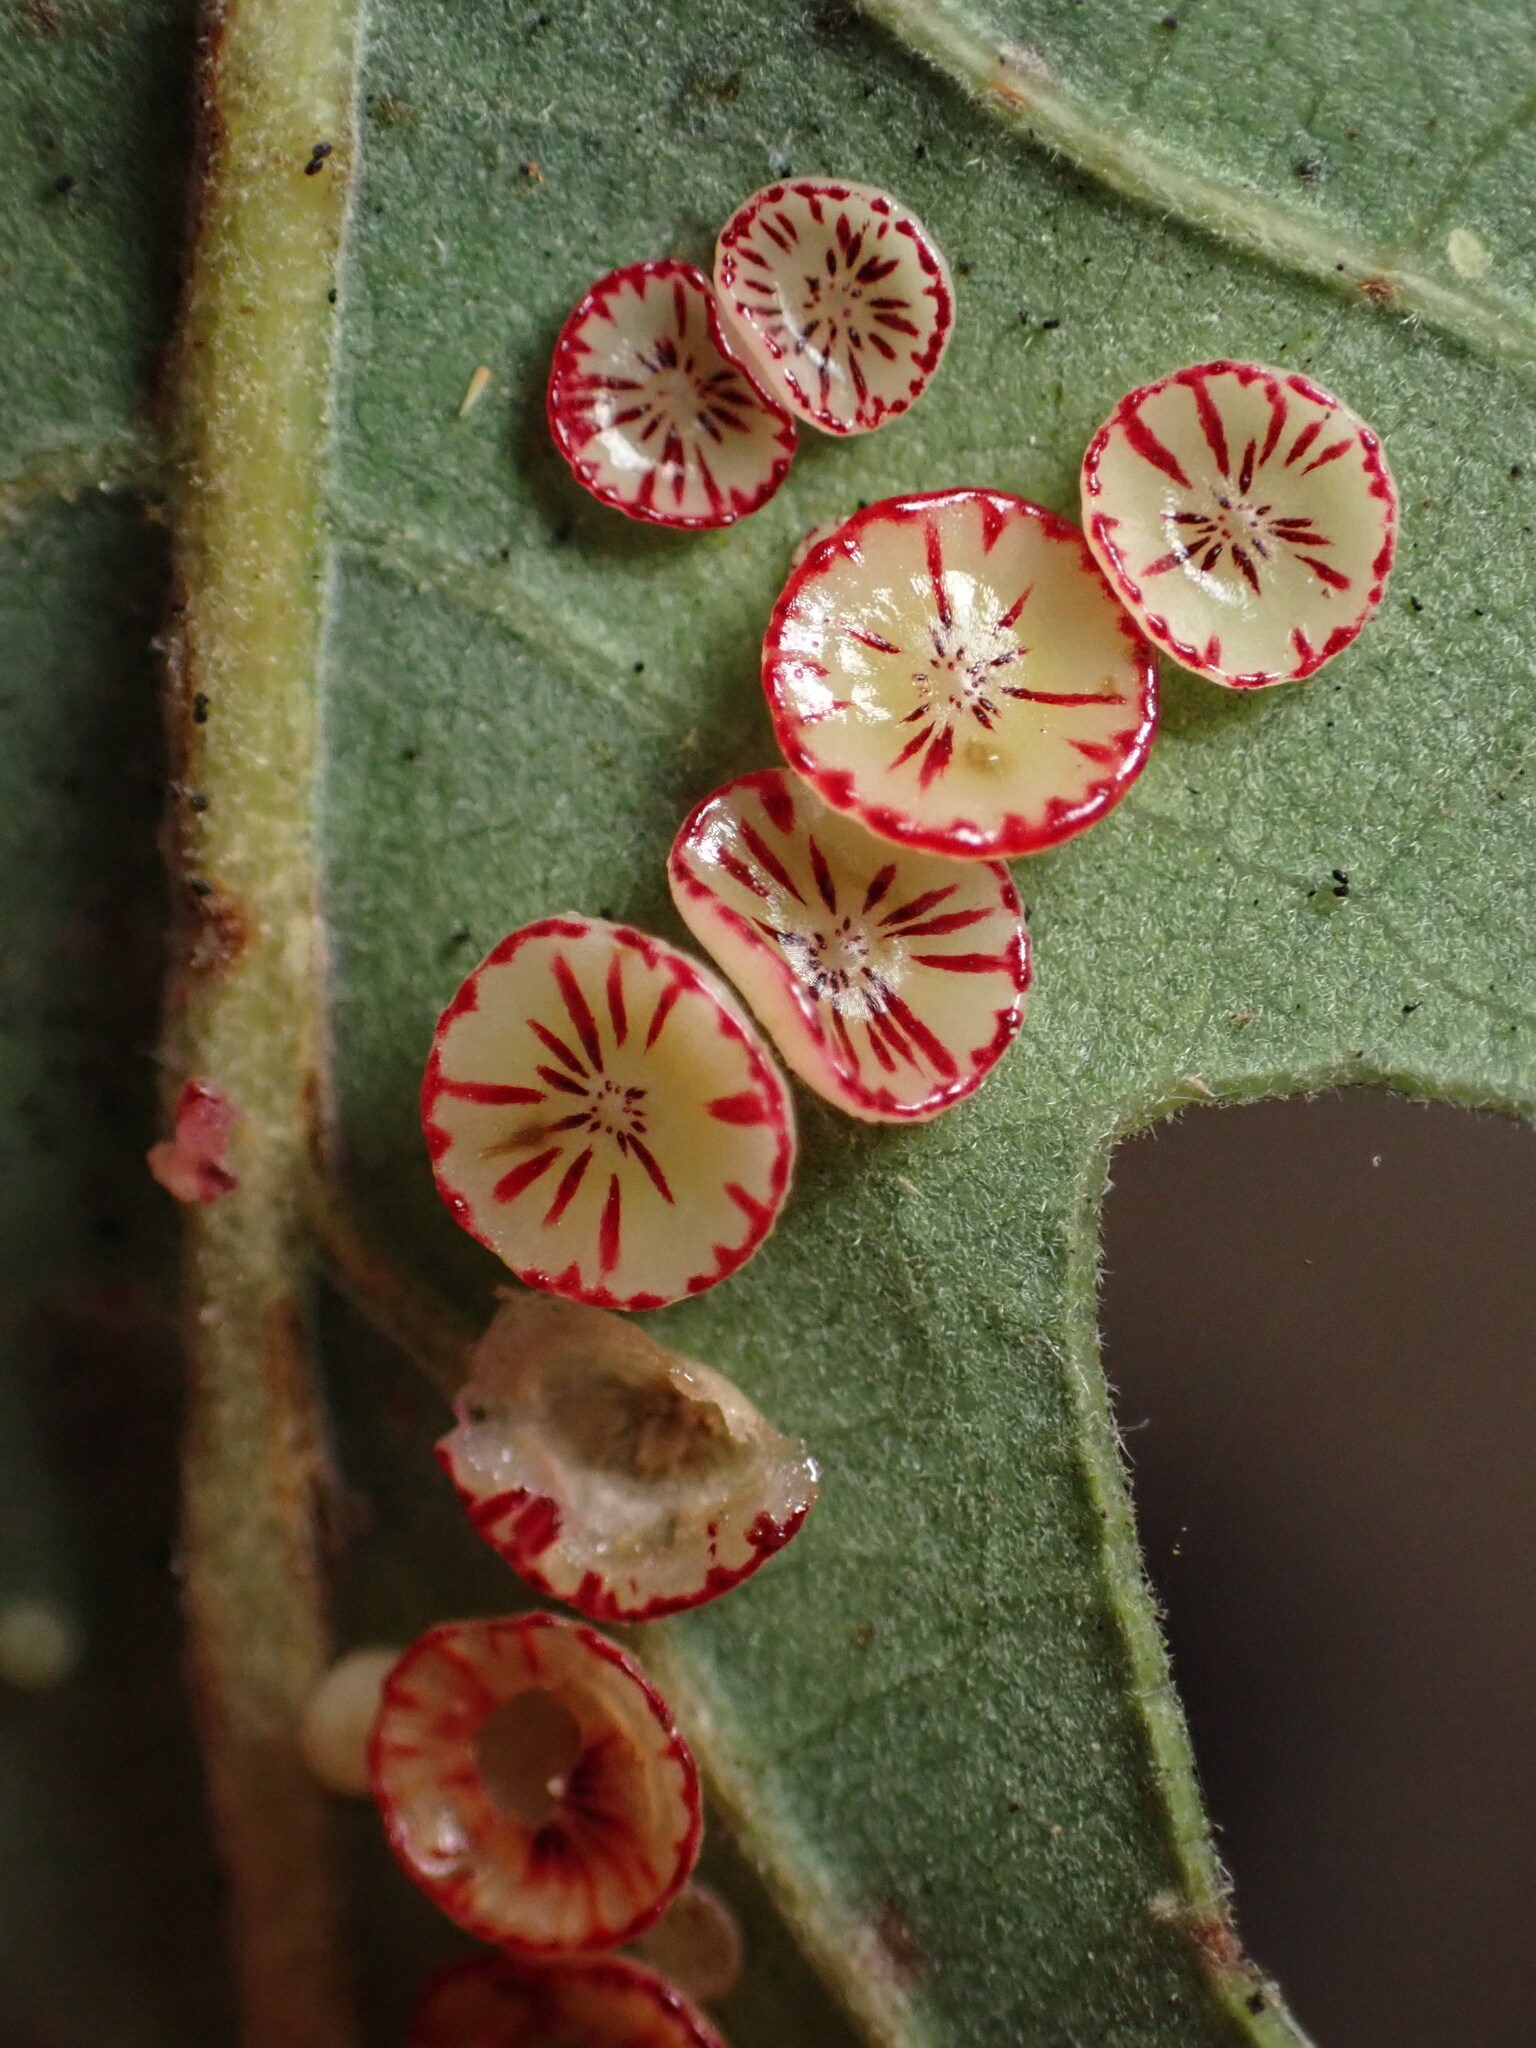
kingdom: Animalia
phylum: Arthropoda
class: Insecta
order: Hymenoptera
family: Cynipidae
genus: Andricus
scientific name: Andricus
